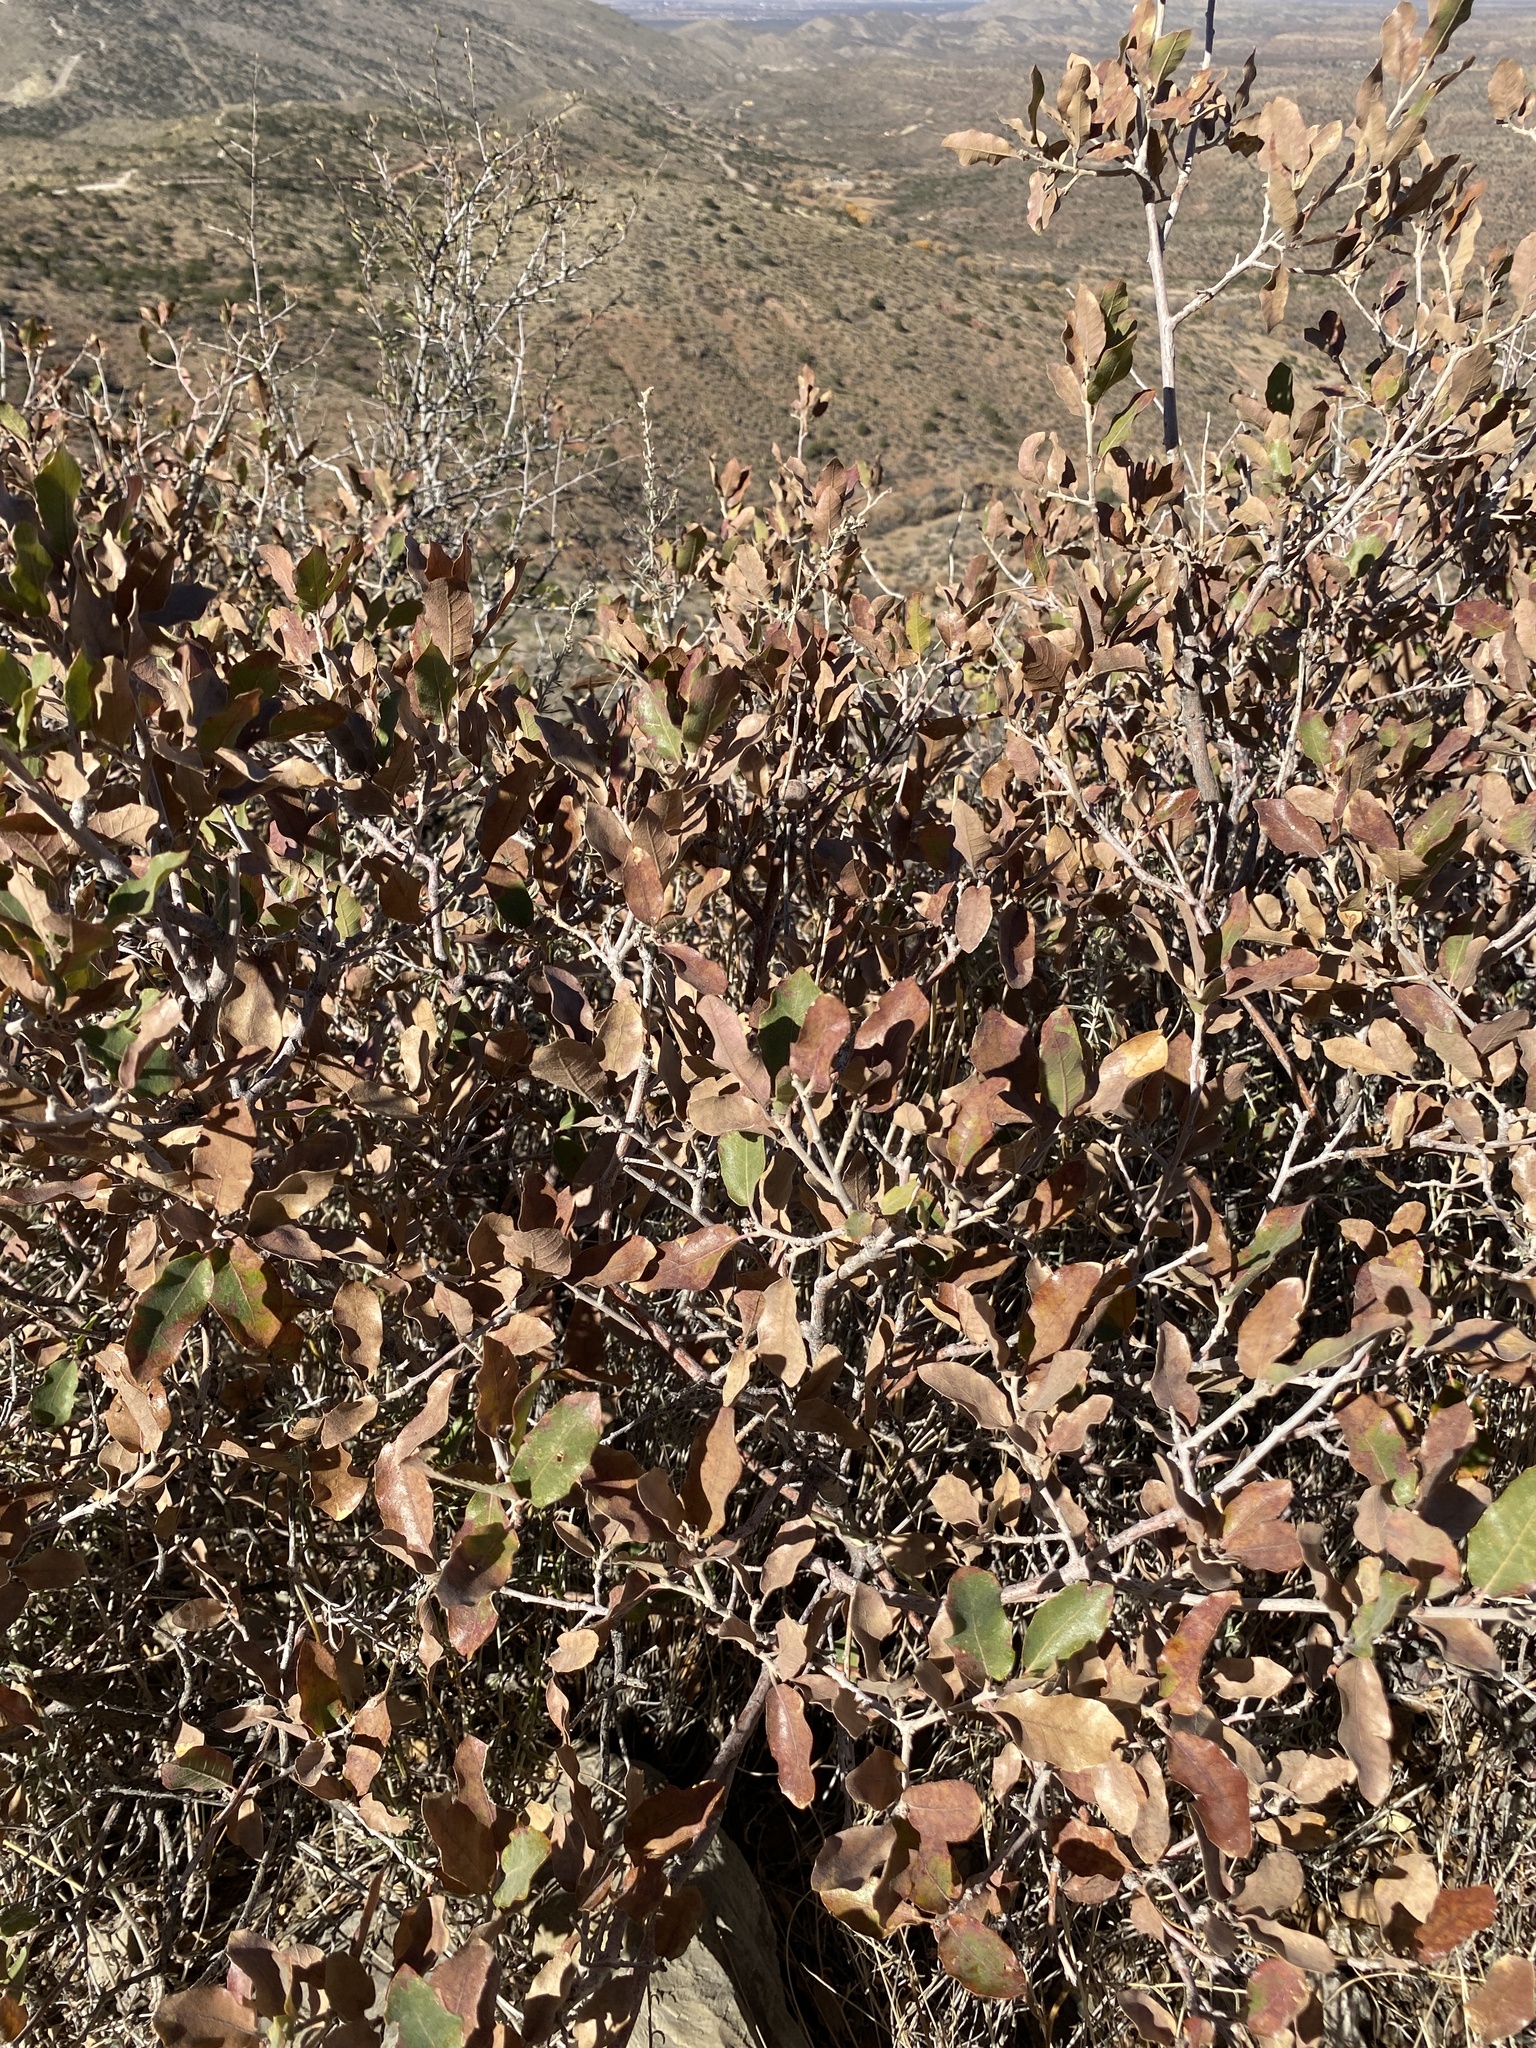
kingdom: Plantae
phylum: Tracheophyta
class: Magnoliopsida
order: Fagales
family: Fagaceae
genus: Quercus
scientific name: Quercus undulata
